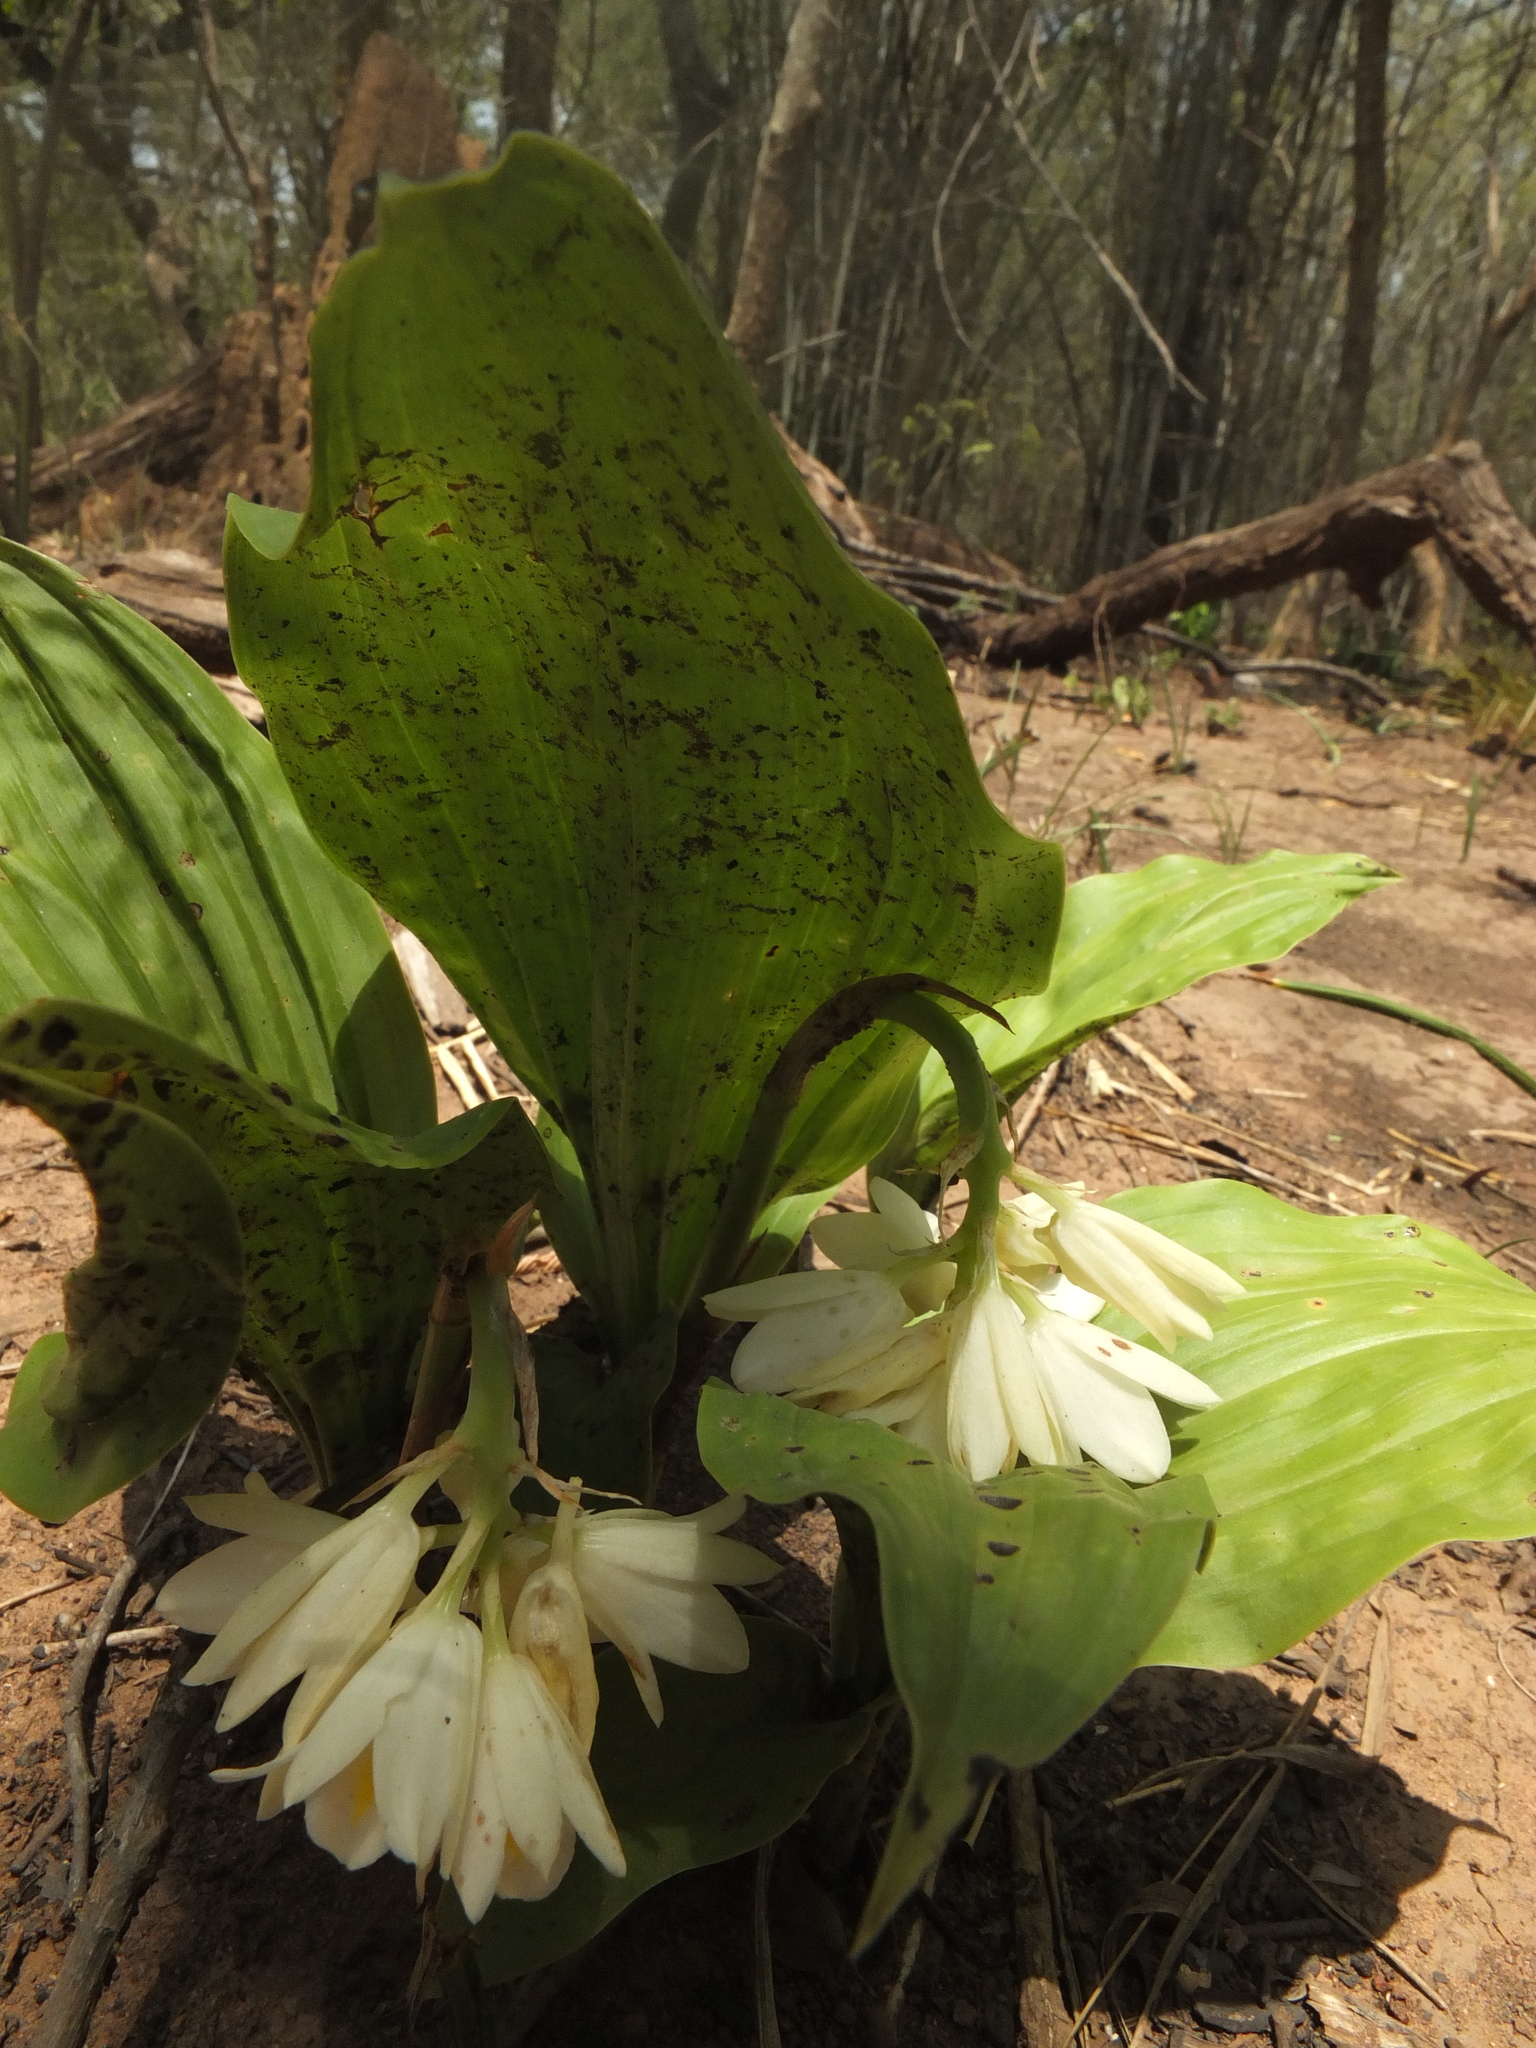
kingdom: Plantae
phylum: Tracheophyta
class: Liliopsida
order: Asparagales
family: Orchidaceae
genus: Eulophia
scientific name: Eulophia cernua
